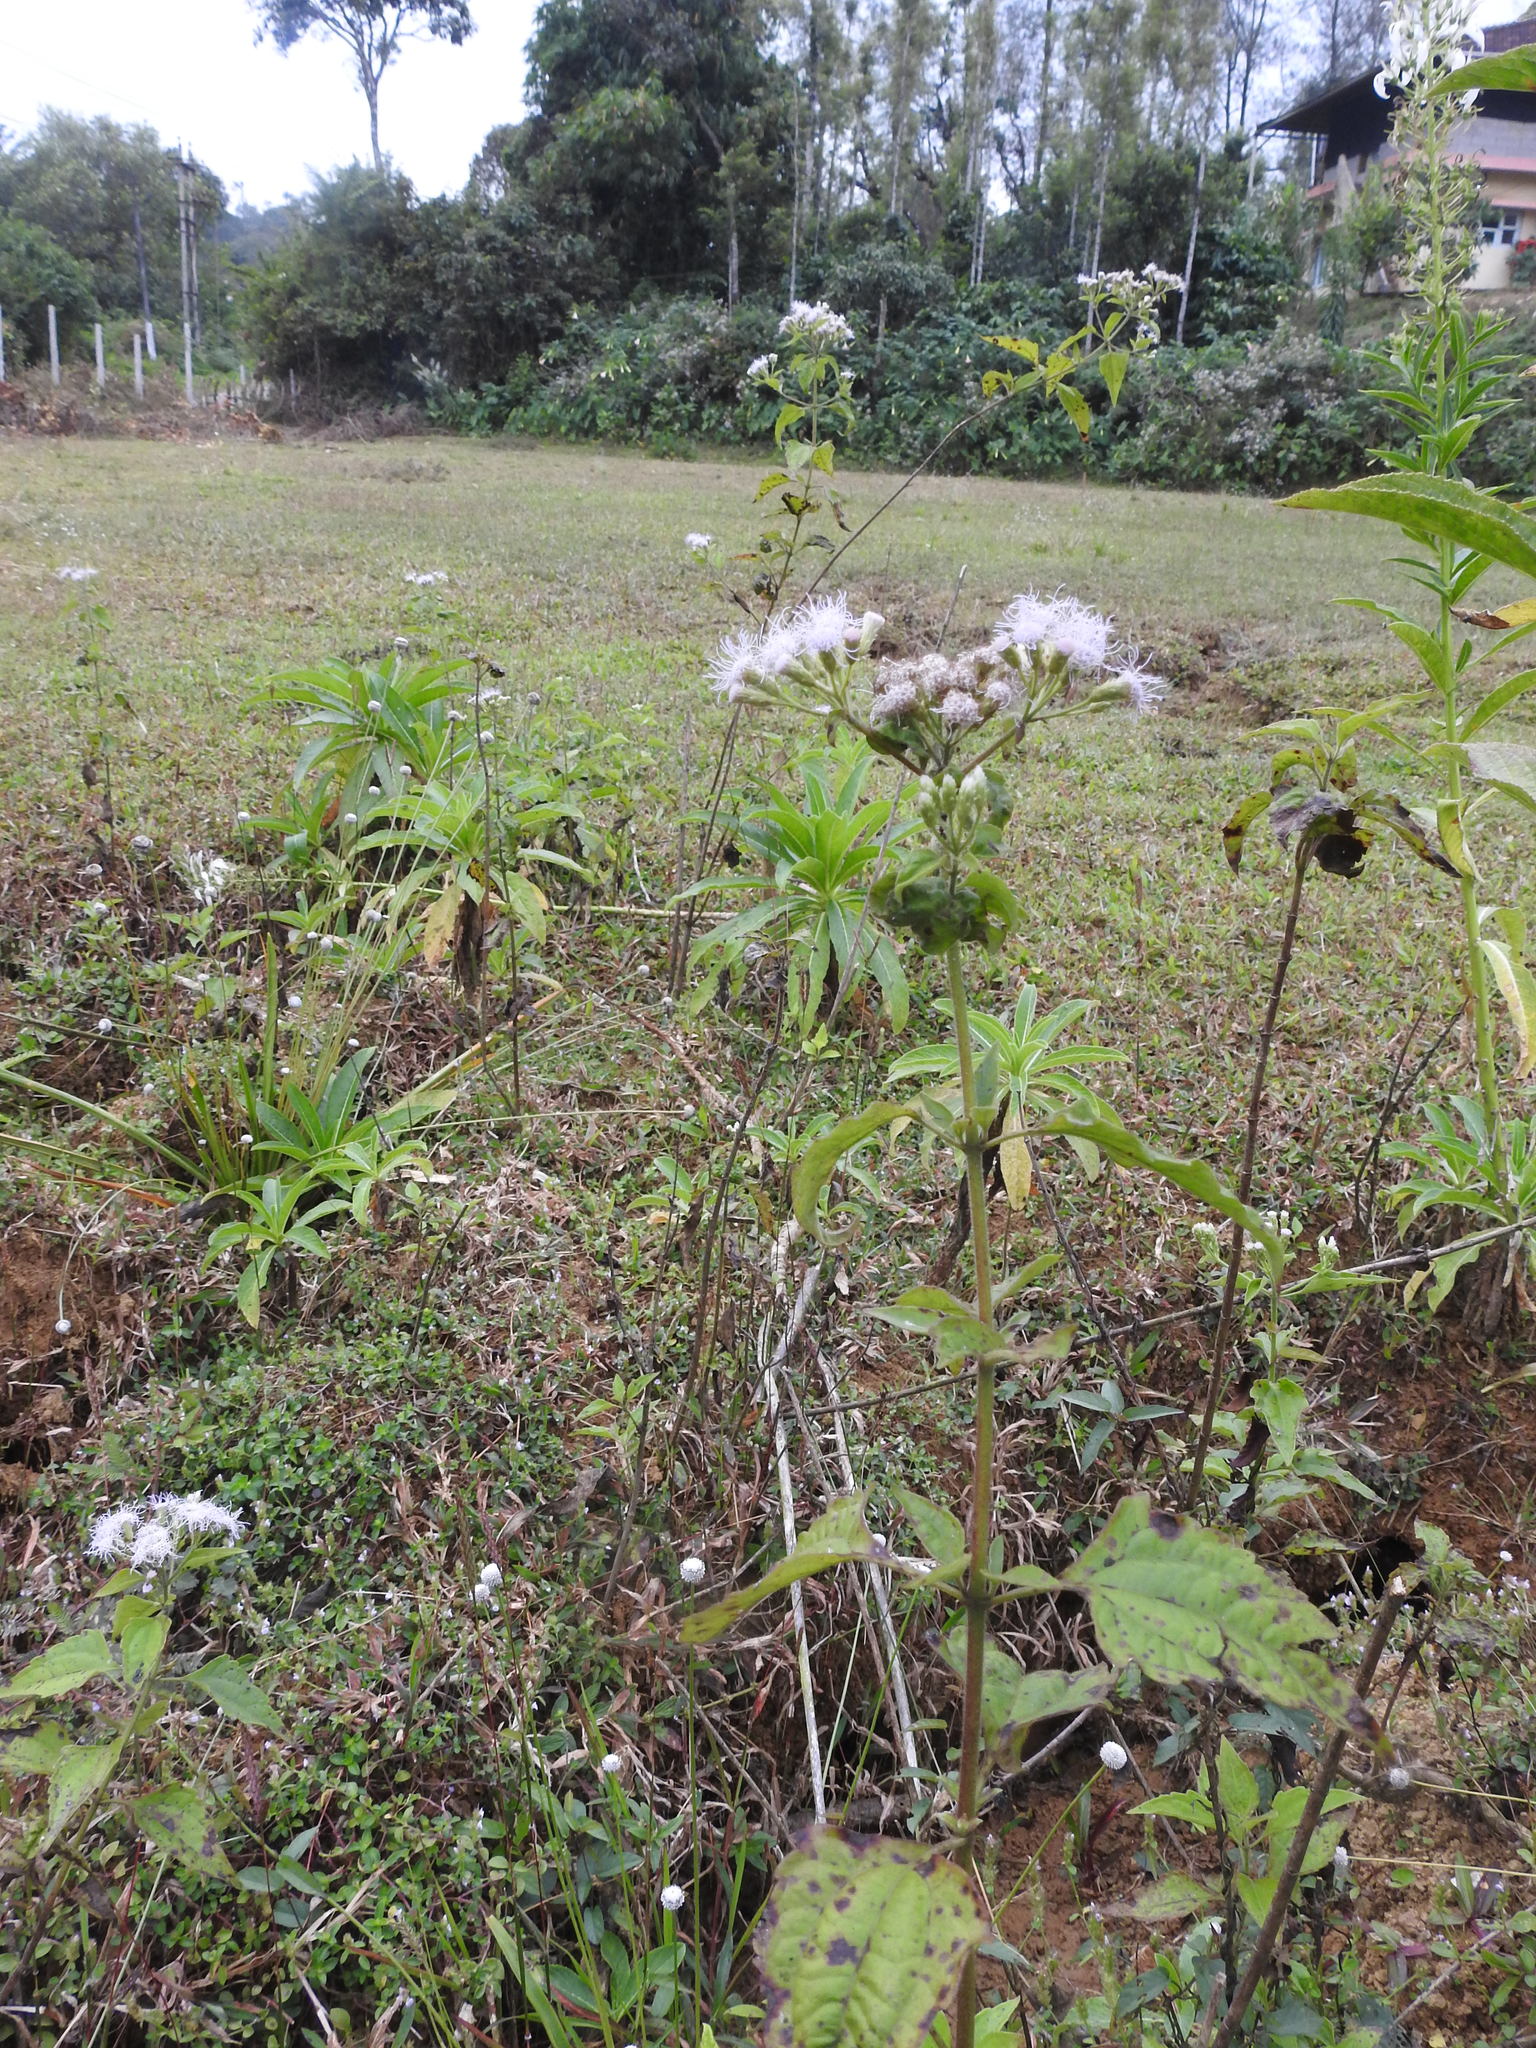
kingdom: Plantae
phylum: Tracheophyta
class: Magnoliopsida
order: Asterales
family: Asteraceae
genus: Chromolaena
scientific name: Chromolaena odorata
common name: Siamweed
